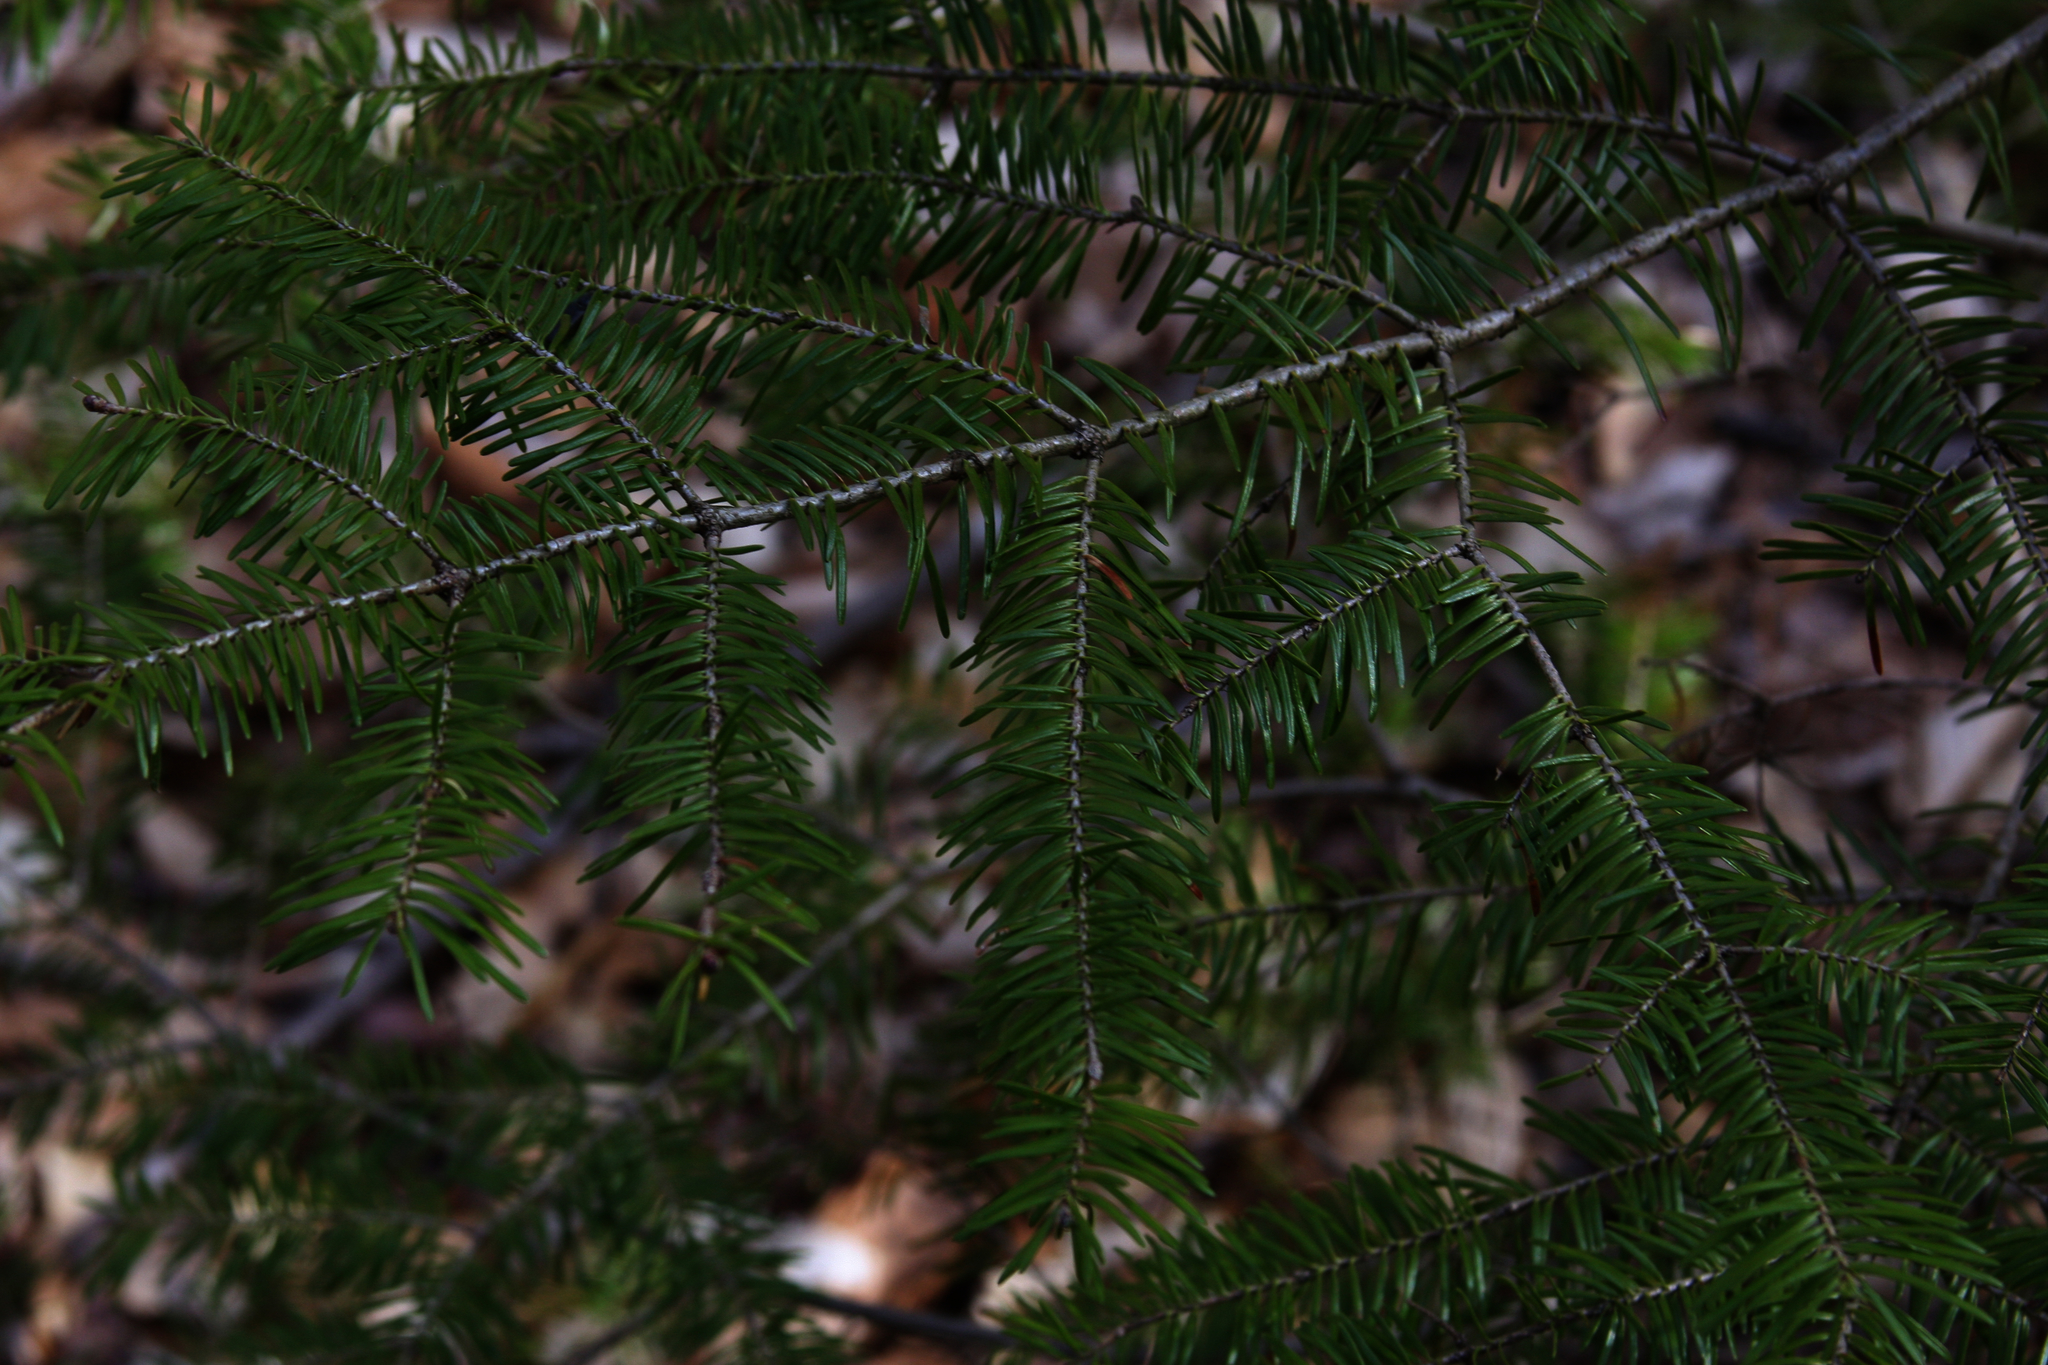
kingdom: Plantae
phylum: Tracheophyta
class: Pinopsida
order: Pinales
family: Pinaceae
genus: Abies
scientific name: Abies balsamea
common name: Balsam fir
